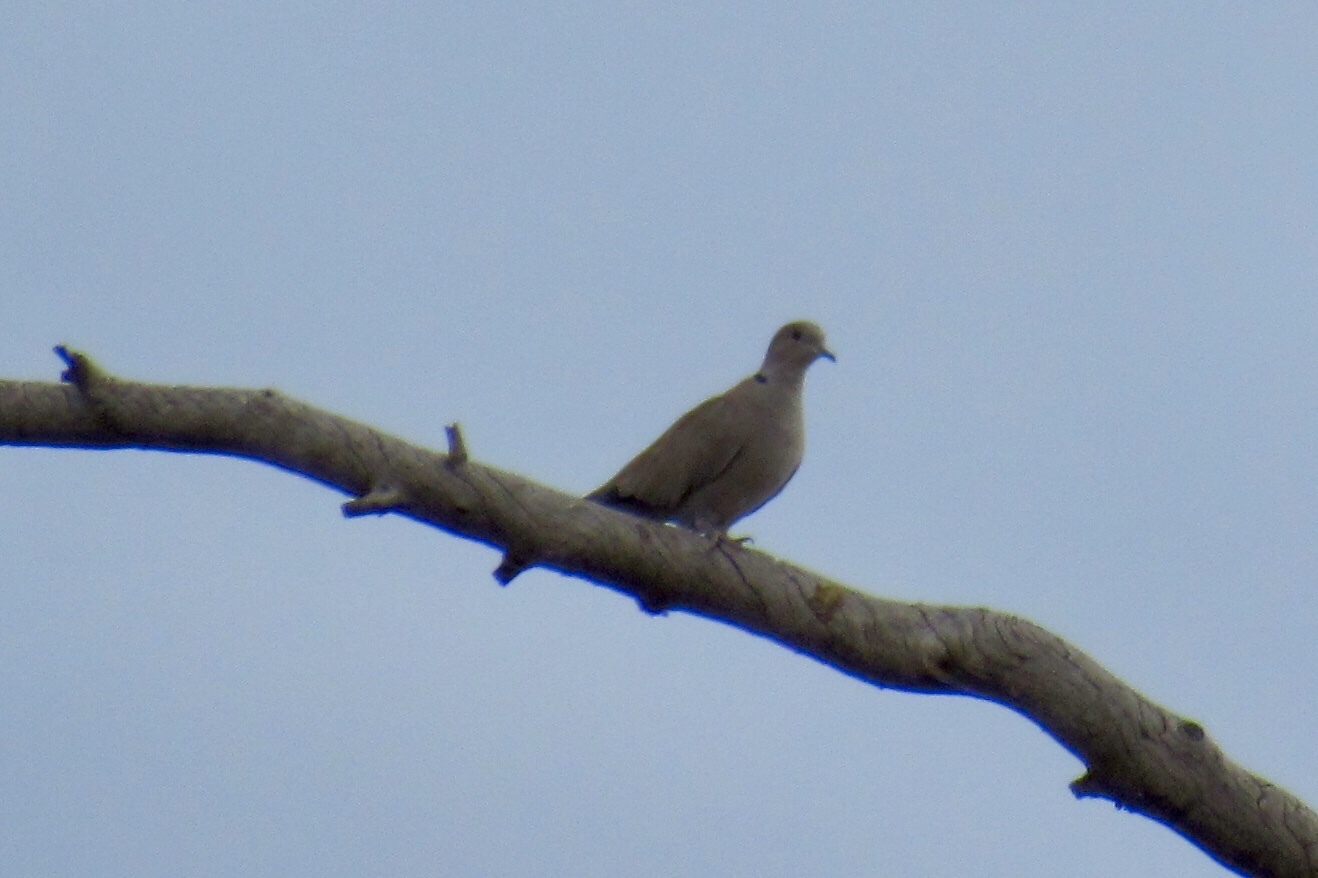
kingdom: Animalia
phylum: Chordata
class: Aves
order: Columbiformes
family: Columbidae
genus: Streptopelia
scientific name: Streptopelia decaocto
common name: Eurasian collared dove
